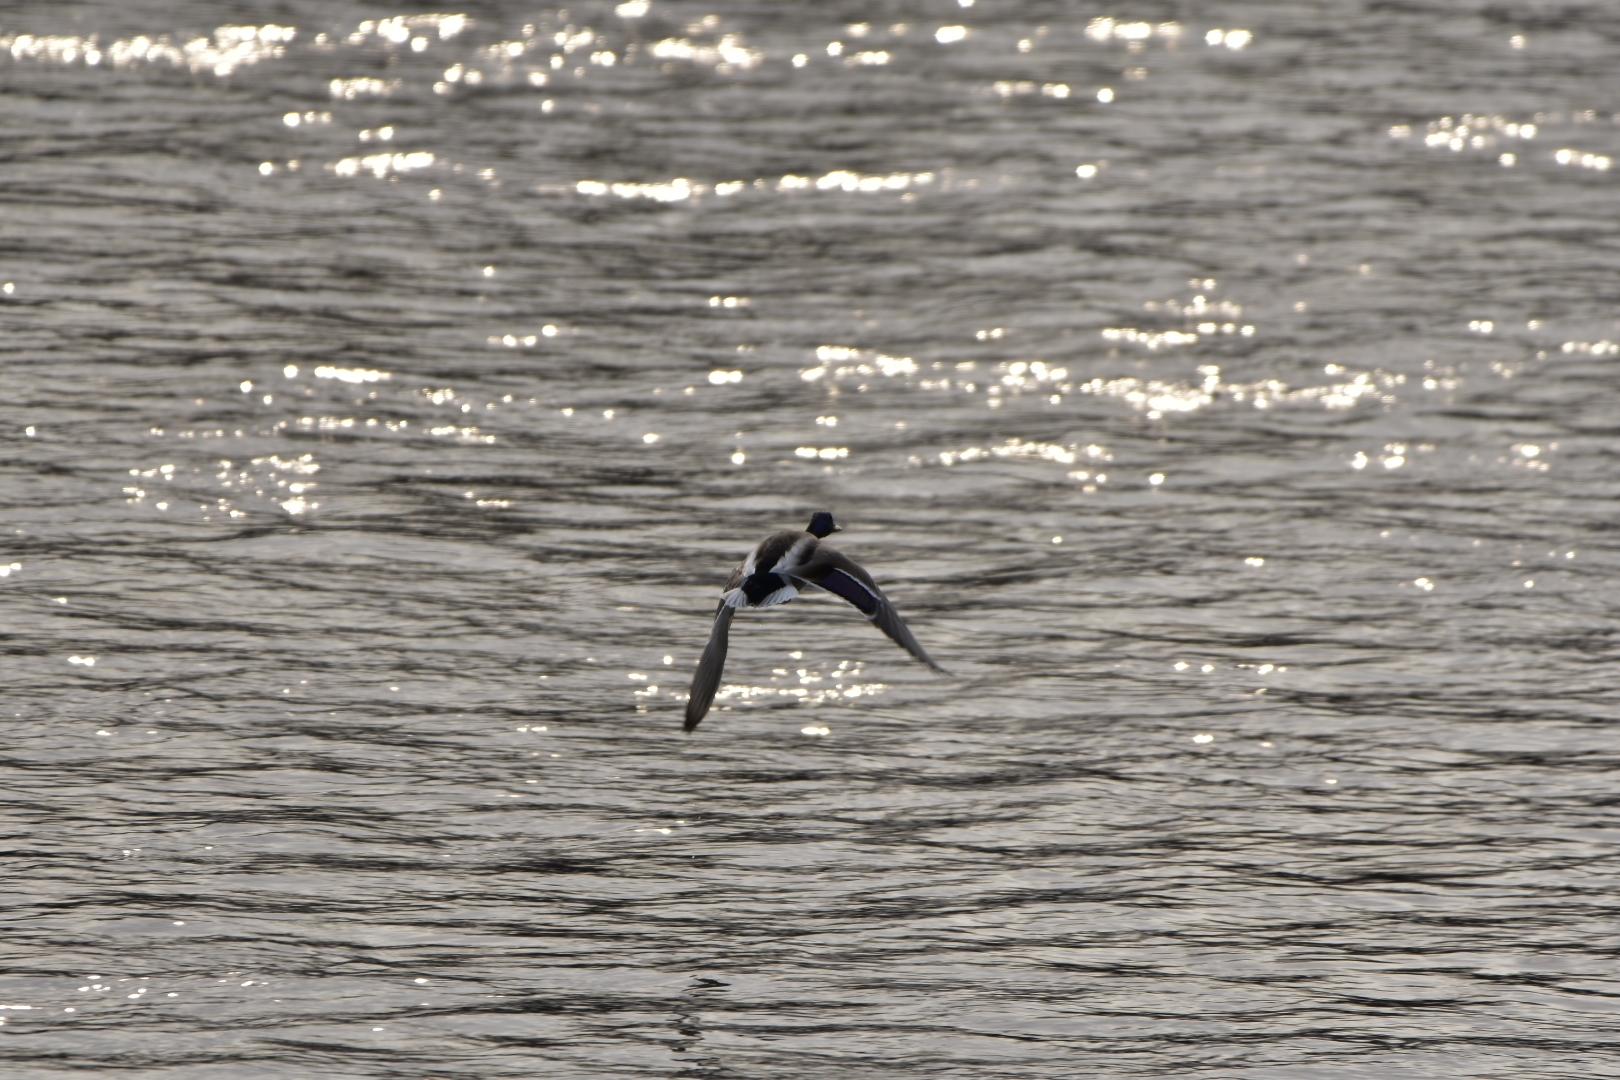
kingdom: Animalia
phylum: Chordata
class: Aves
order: Anseriformes
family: Anatidae
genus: Anas
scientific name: Anas platyrhynchos
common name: Mallard
